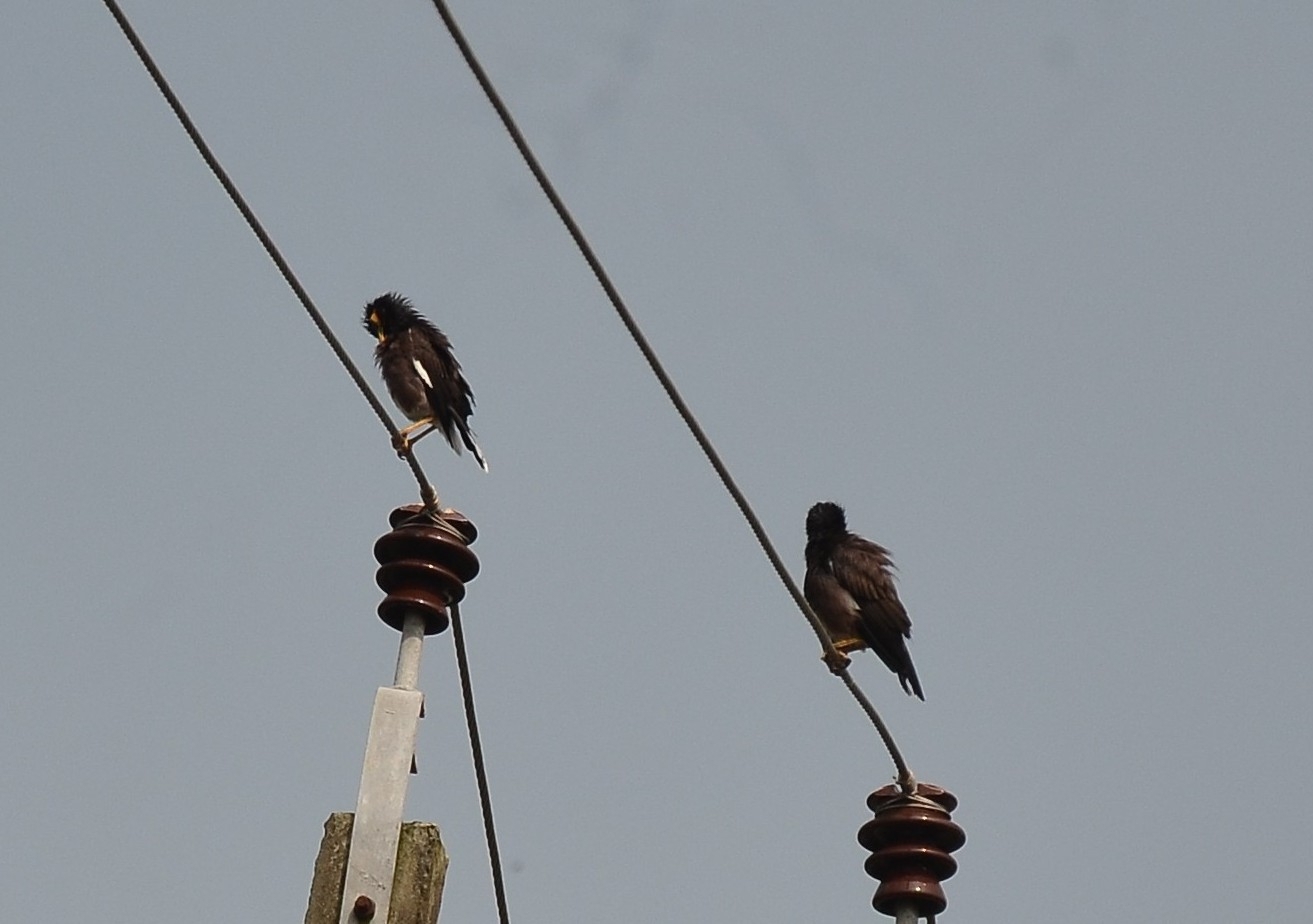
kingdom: Animalia
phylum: Chordata
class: Aves
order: Passeriformes
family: Sturnidae
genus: Acridotheres
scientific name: Acridotheres tristis
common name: Common myna
